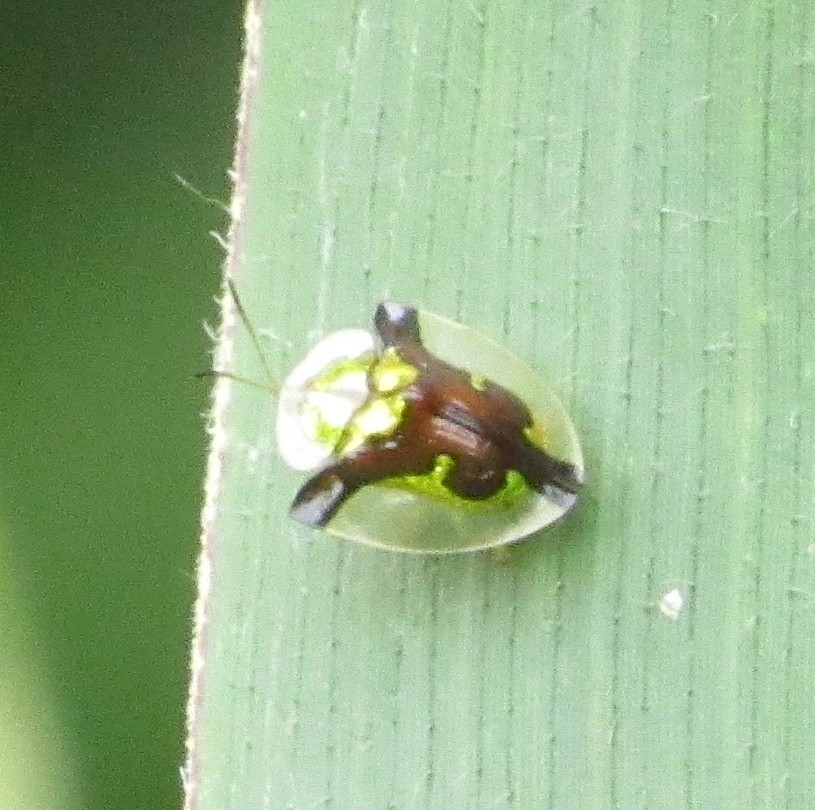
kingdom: Animalia
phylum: Arthropoda
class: Insecta
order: Coleoptera
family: Chrysomelidae
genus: Deloyala
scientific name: Deloyala cruciata
